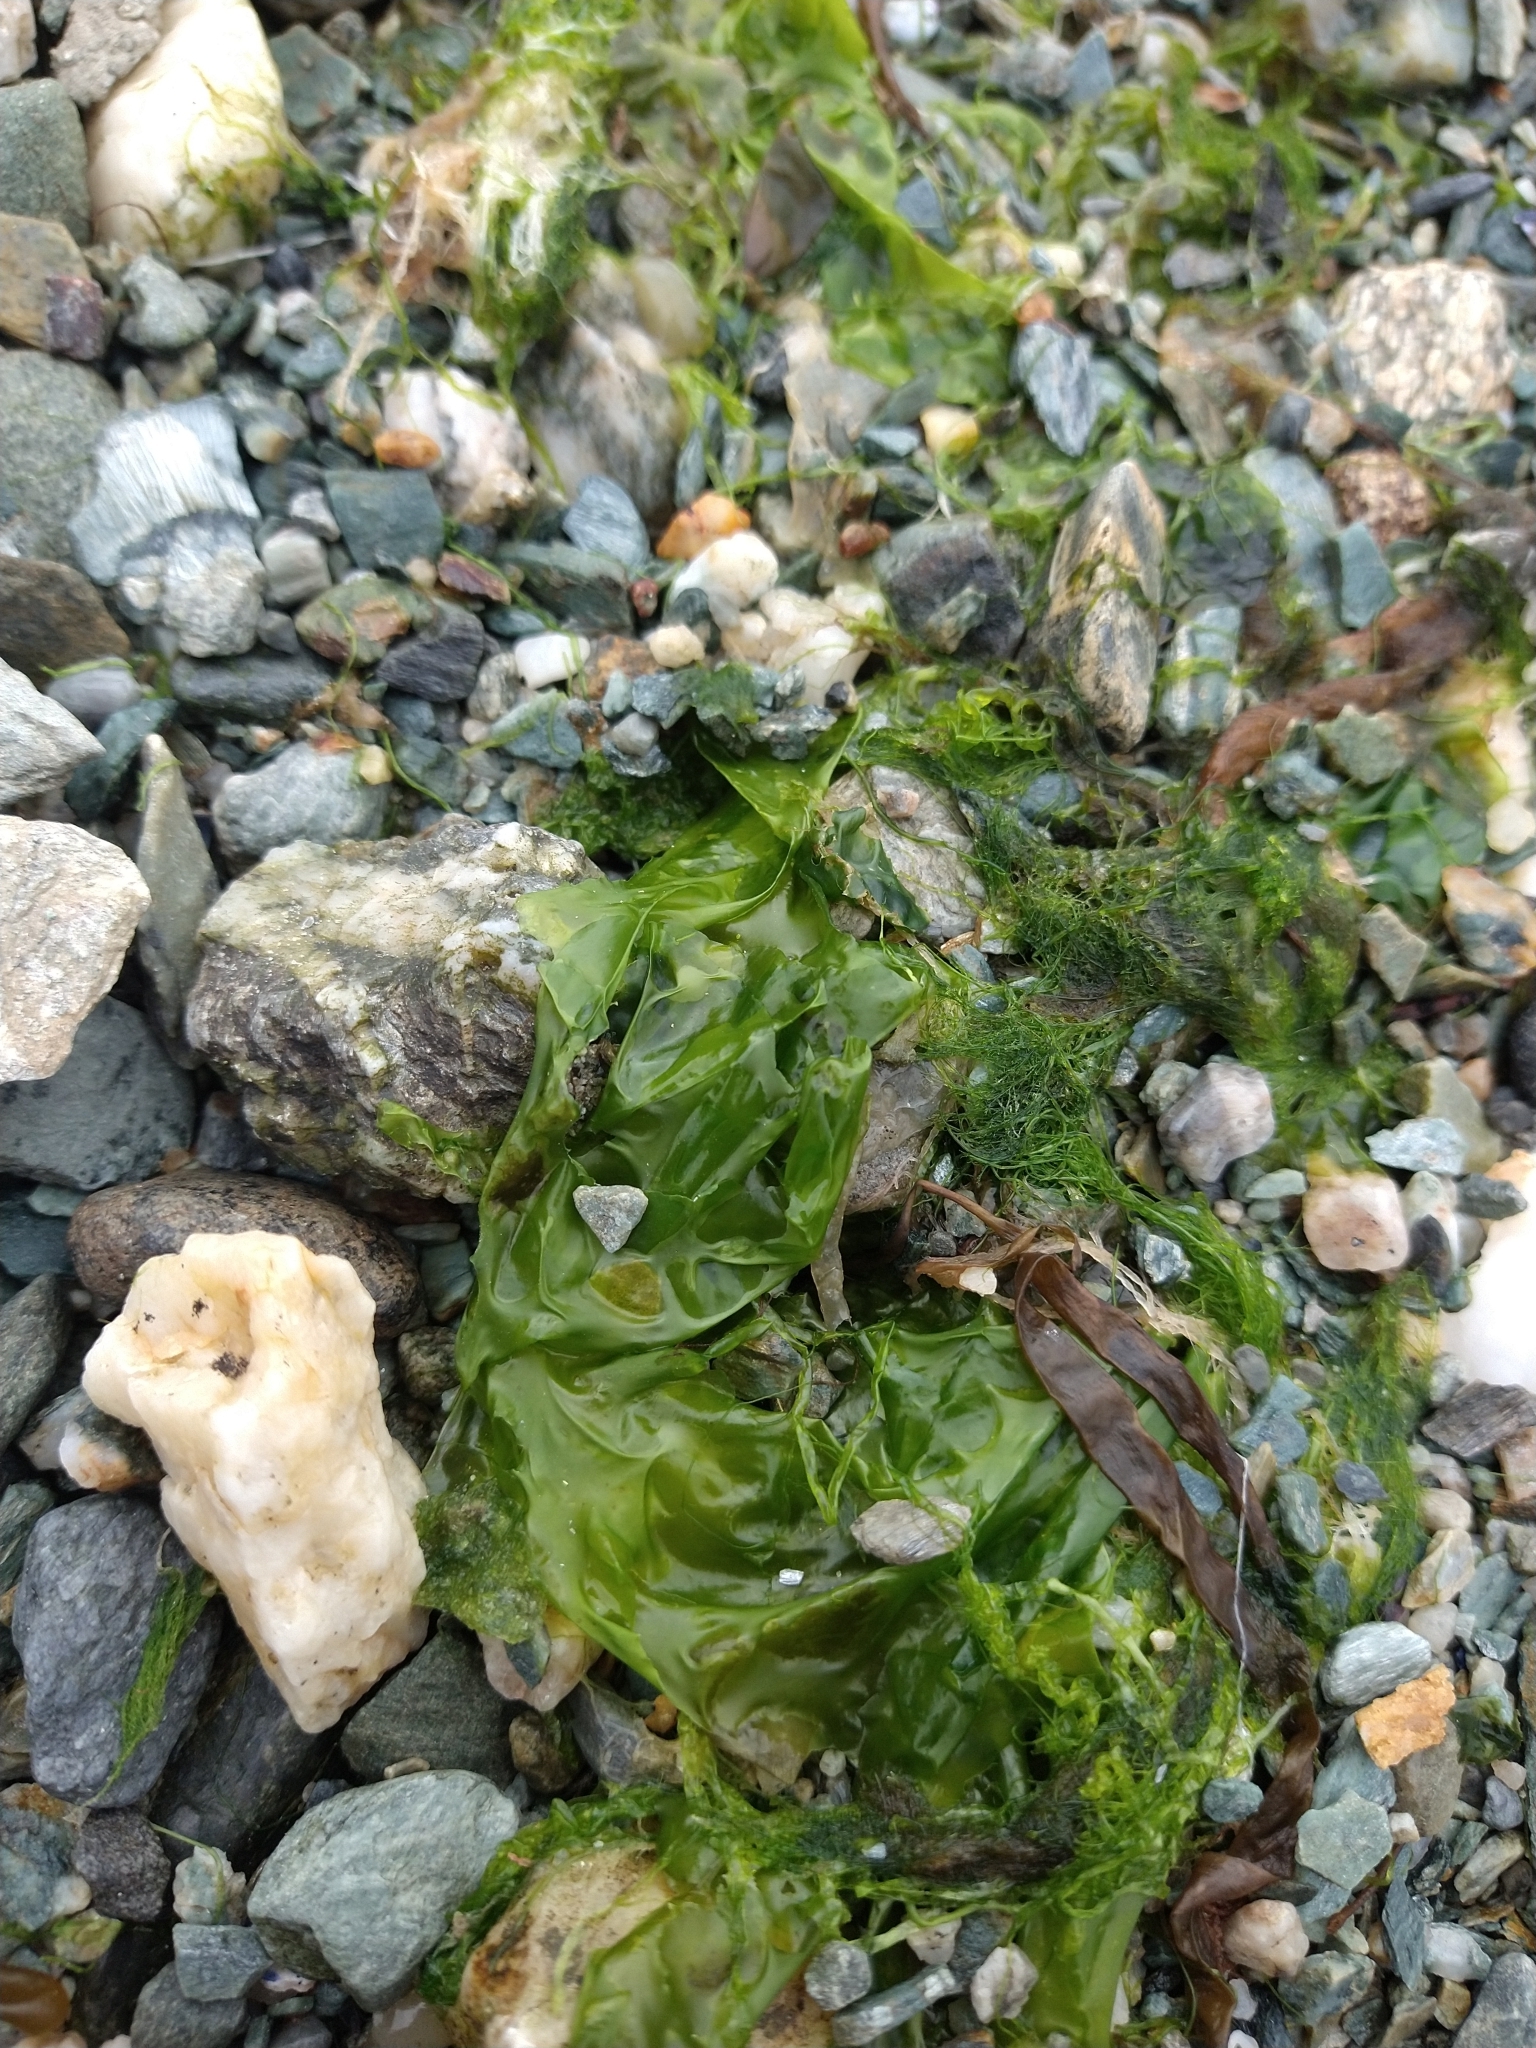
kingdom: Plantae
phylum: Chlorophyta
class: Ulvophyceae
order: Ulvales
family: Ulvaceae
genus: Ulva
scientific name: Ulva lactuca
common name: Sea lettuce
